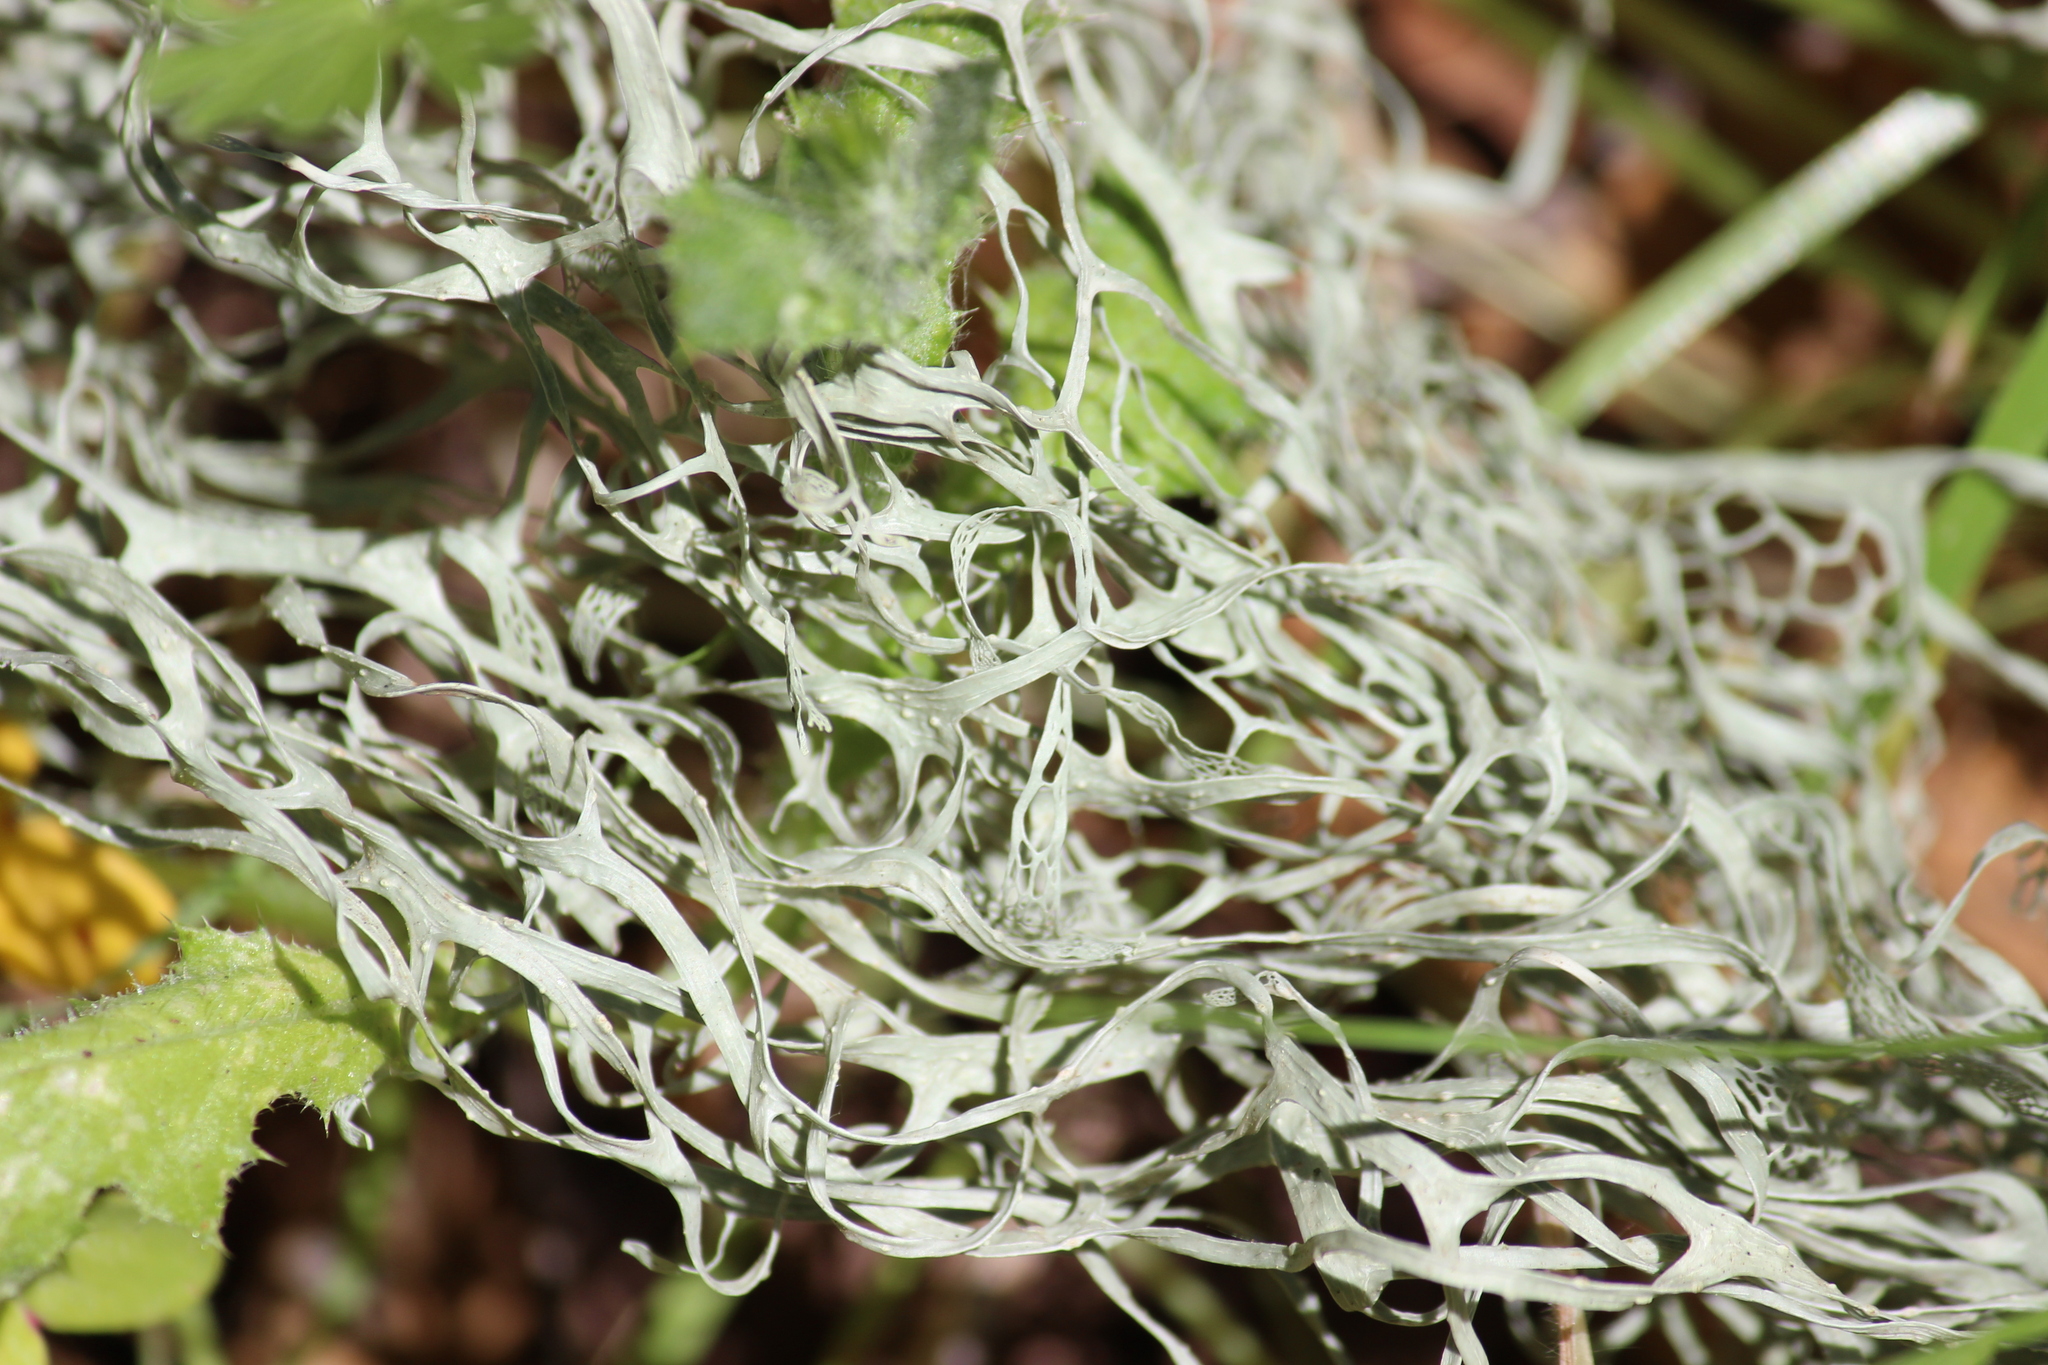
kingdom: Fungi
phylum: Ascomycota
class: Lecanoromycetes
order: Lecanorales
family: Ramalinaceae
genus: Ramalina
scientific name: Ramalina menziesii
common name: Lace lichen
